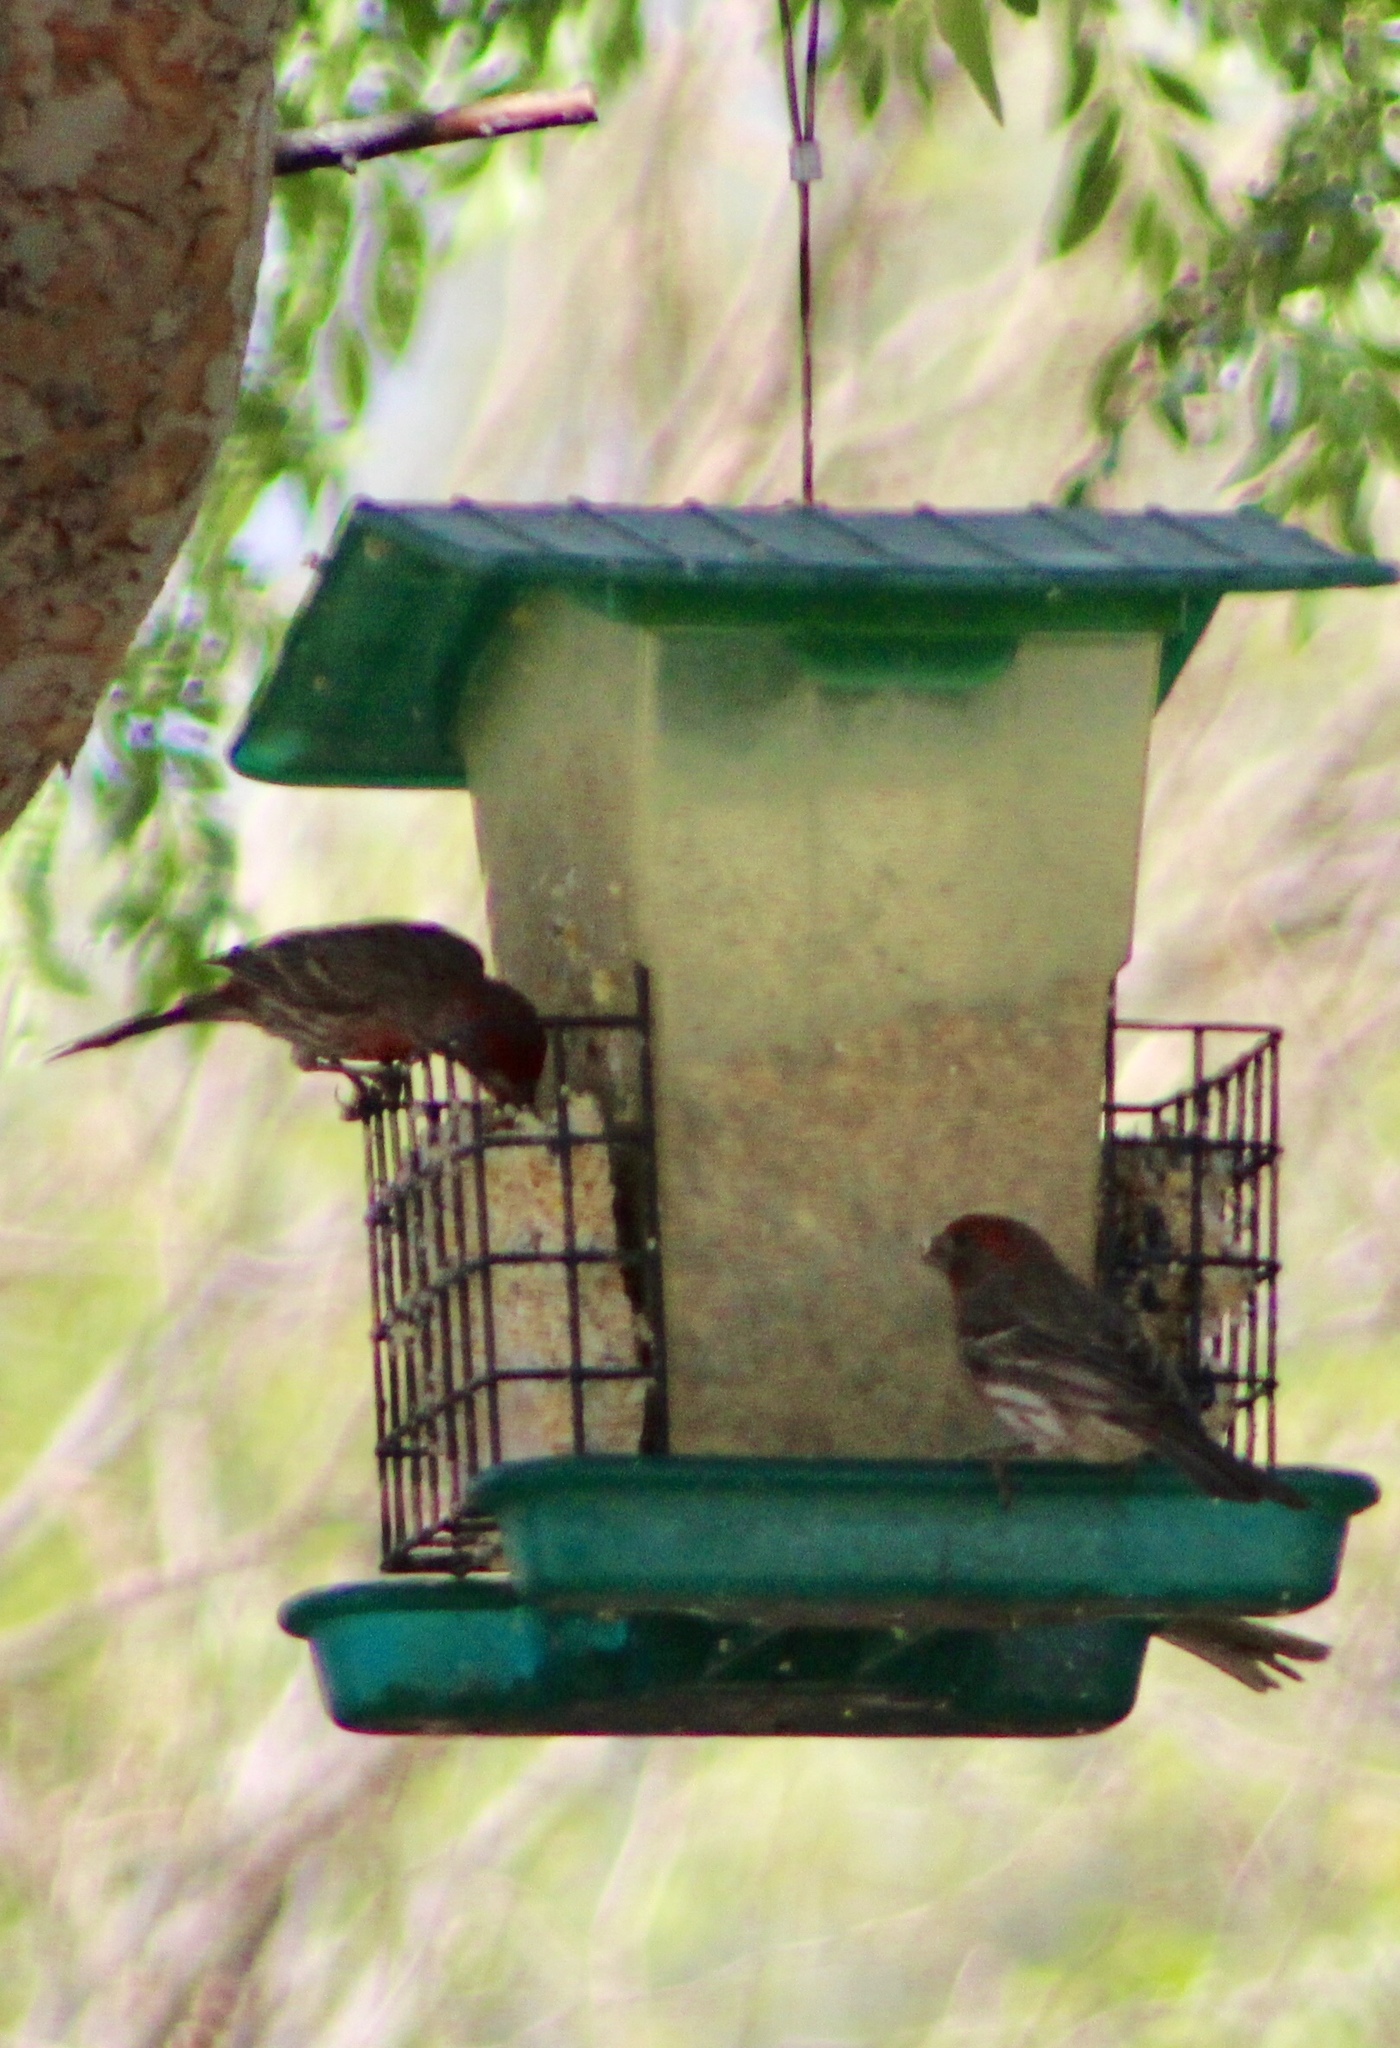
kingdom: Animalia
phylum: Chordata
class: Aves
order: Passeriformes
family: Fringillidae
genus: Haemorhous
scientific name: Haemorhous mexicanus
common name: House finch
